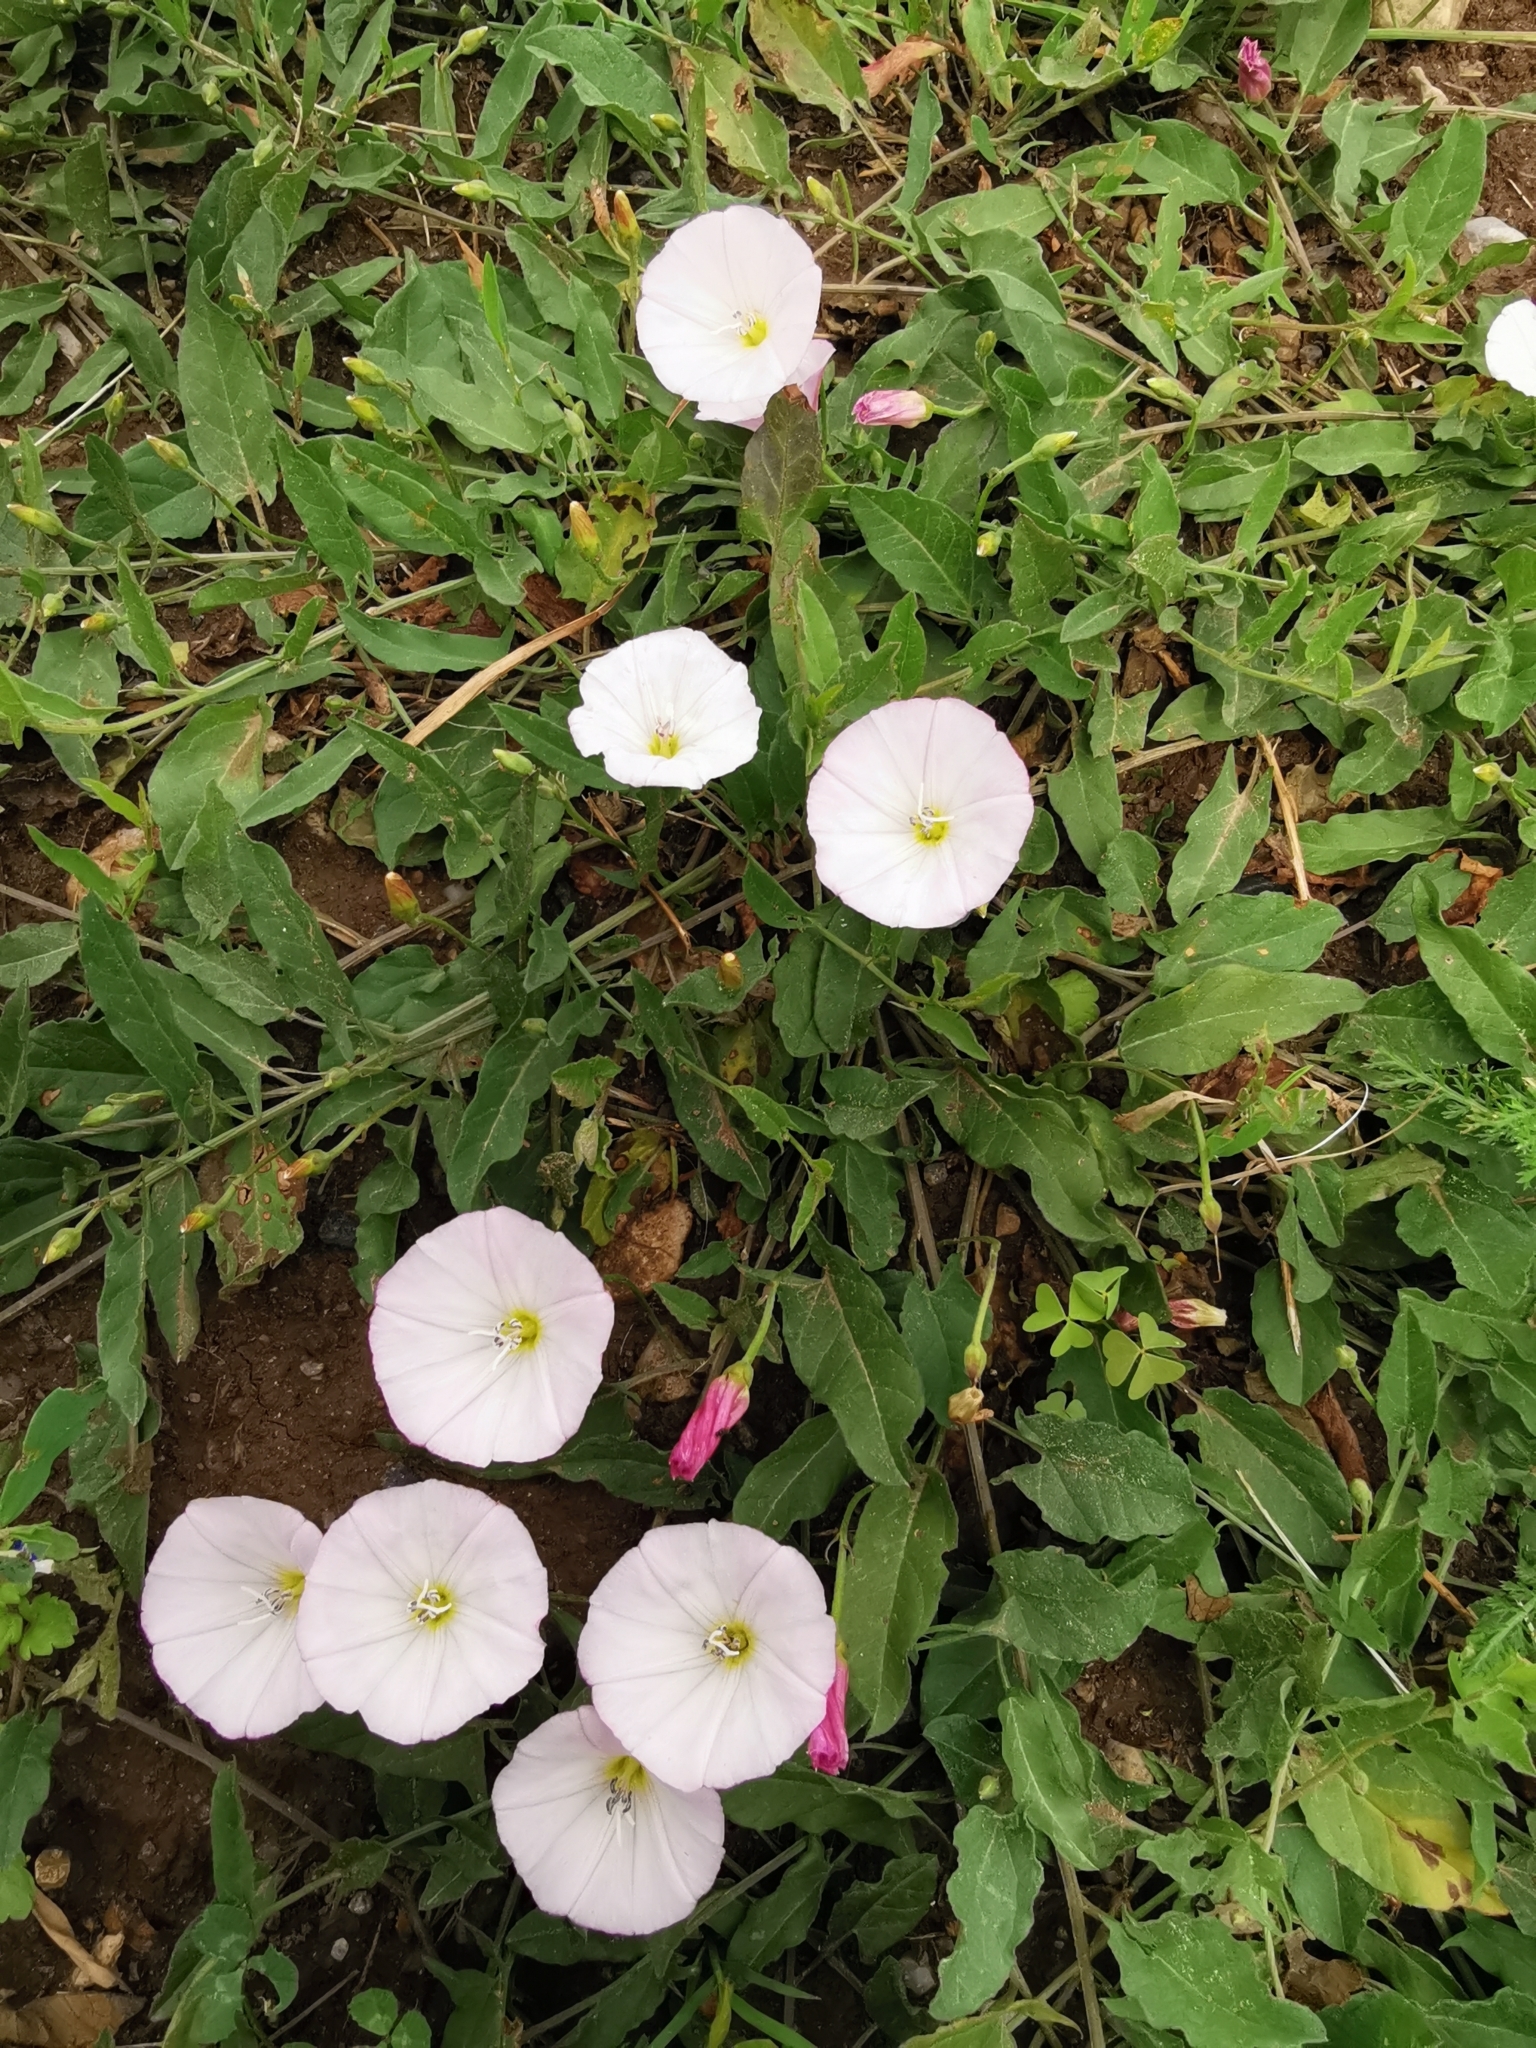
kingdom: Plantae
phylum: Tracheophyta
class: Magnoliopsida
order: Solanales
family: Convolvulaceae
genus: Convolvulus
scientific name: Convolvulus arvensis
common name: Field bindweed
